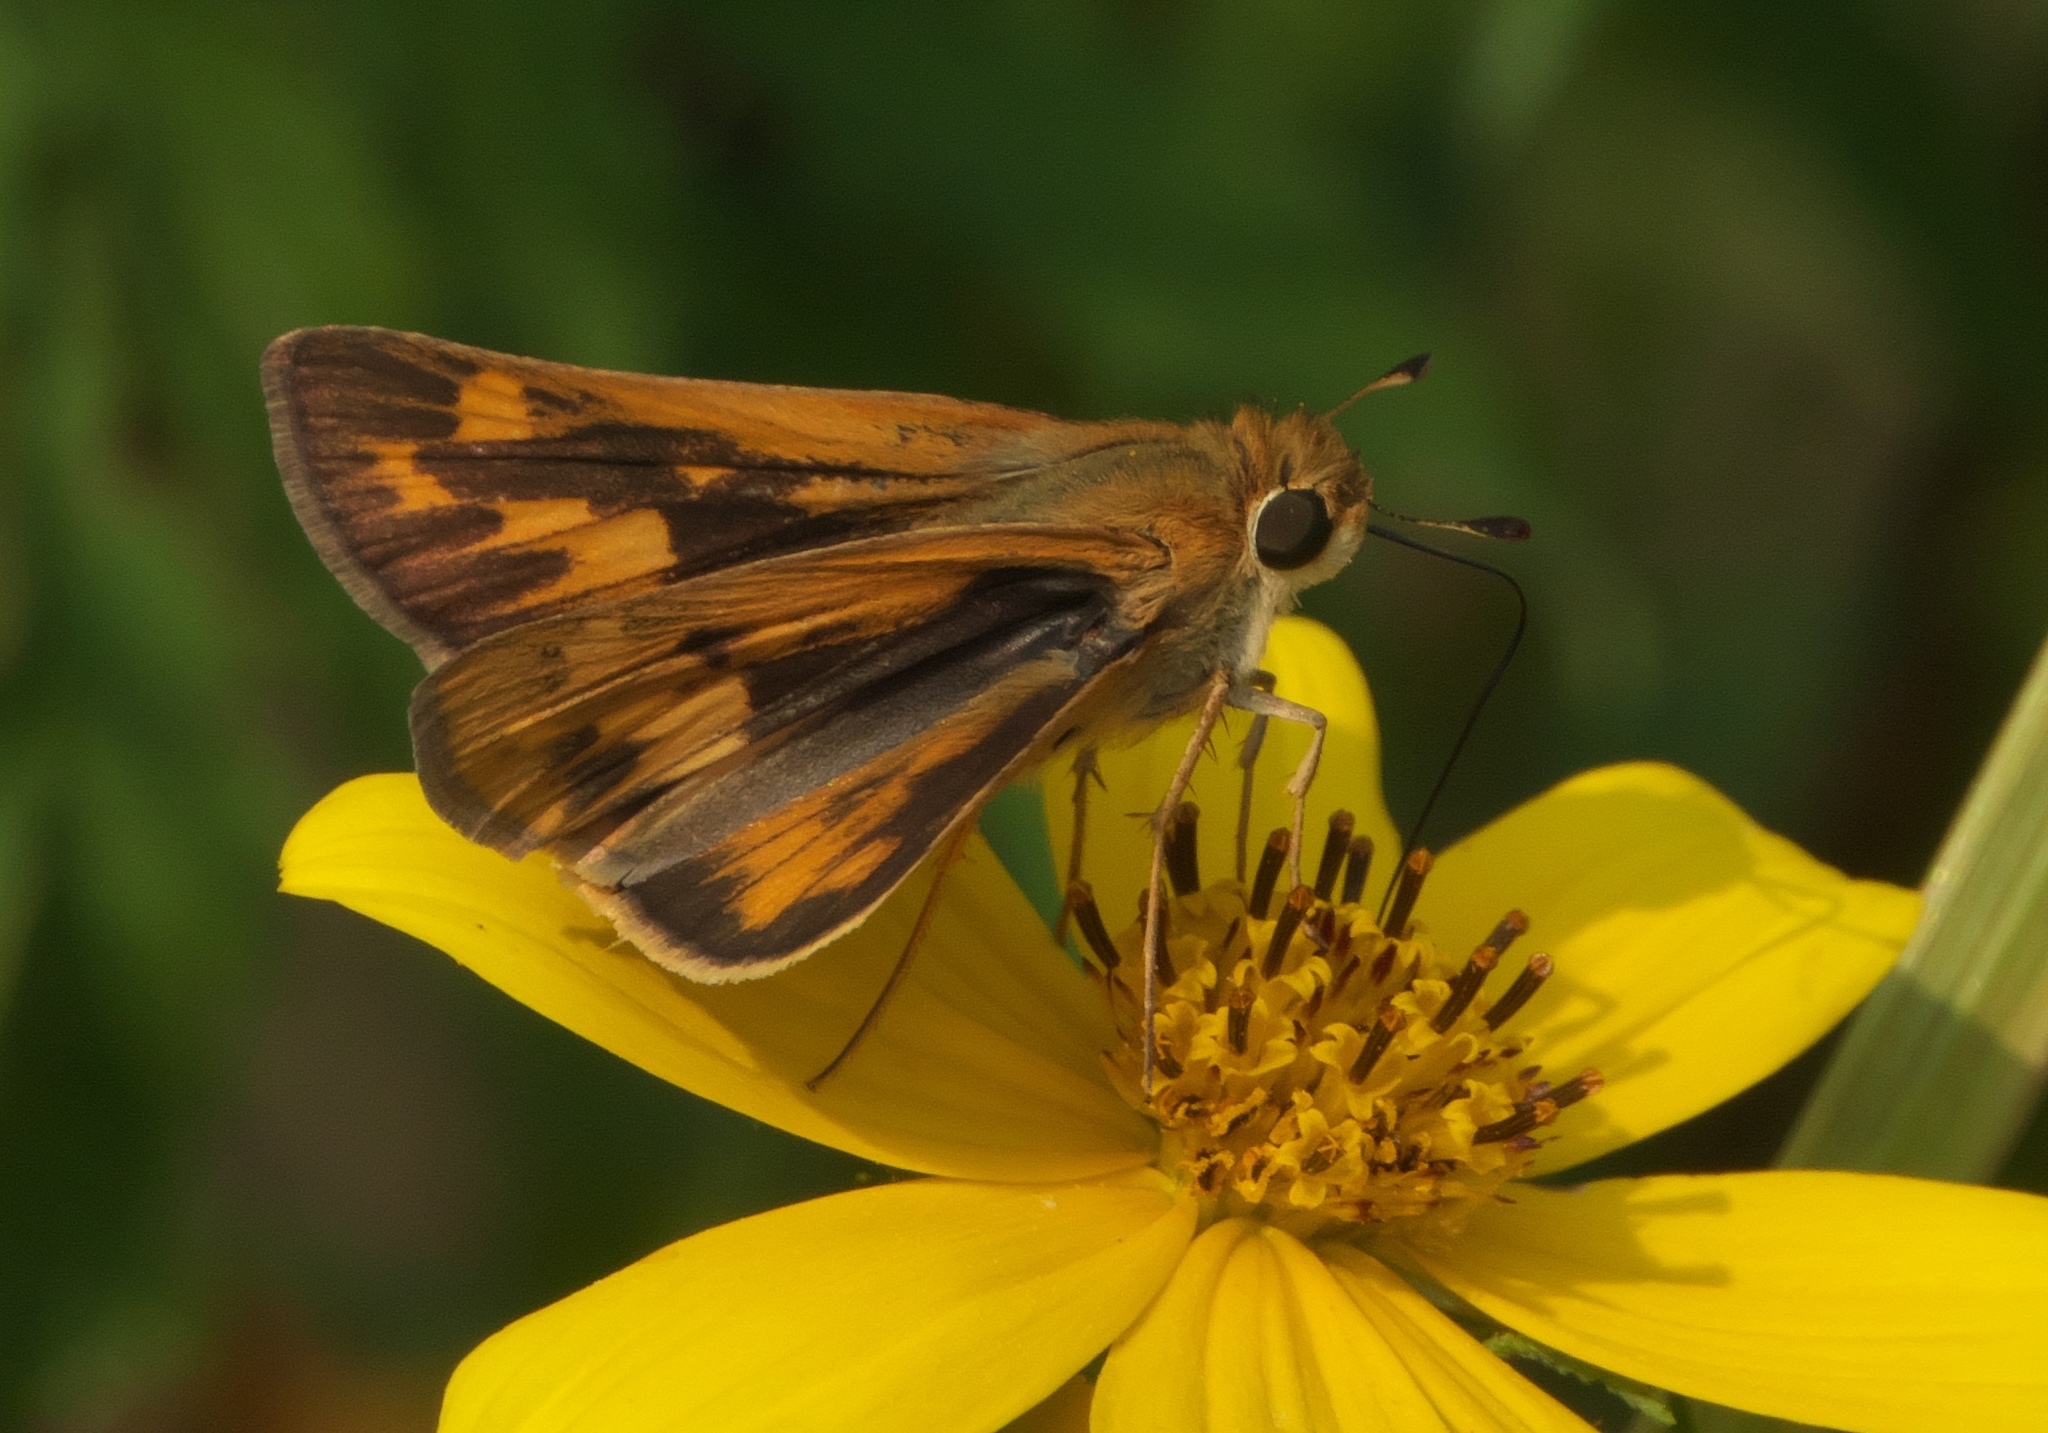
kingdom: Animalia
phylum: Arthropoda
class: Insecta
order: Lepidoptera
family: Hesperiidae
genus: Hylephila
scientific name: Hylephila phyleus
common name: Fiery skipper
